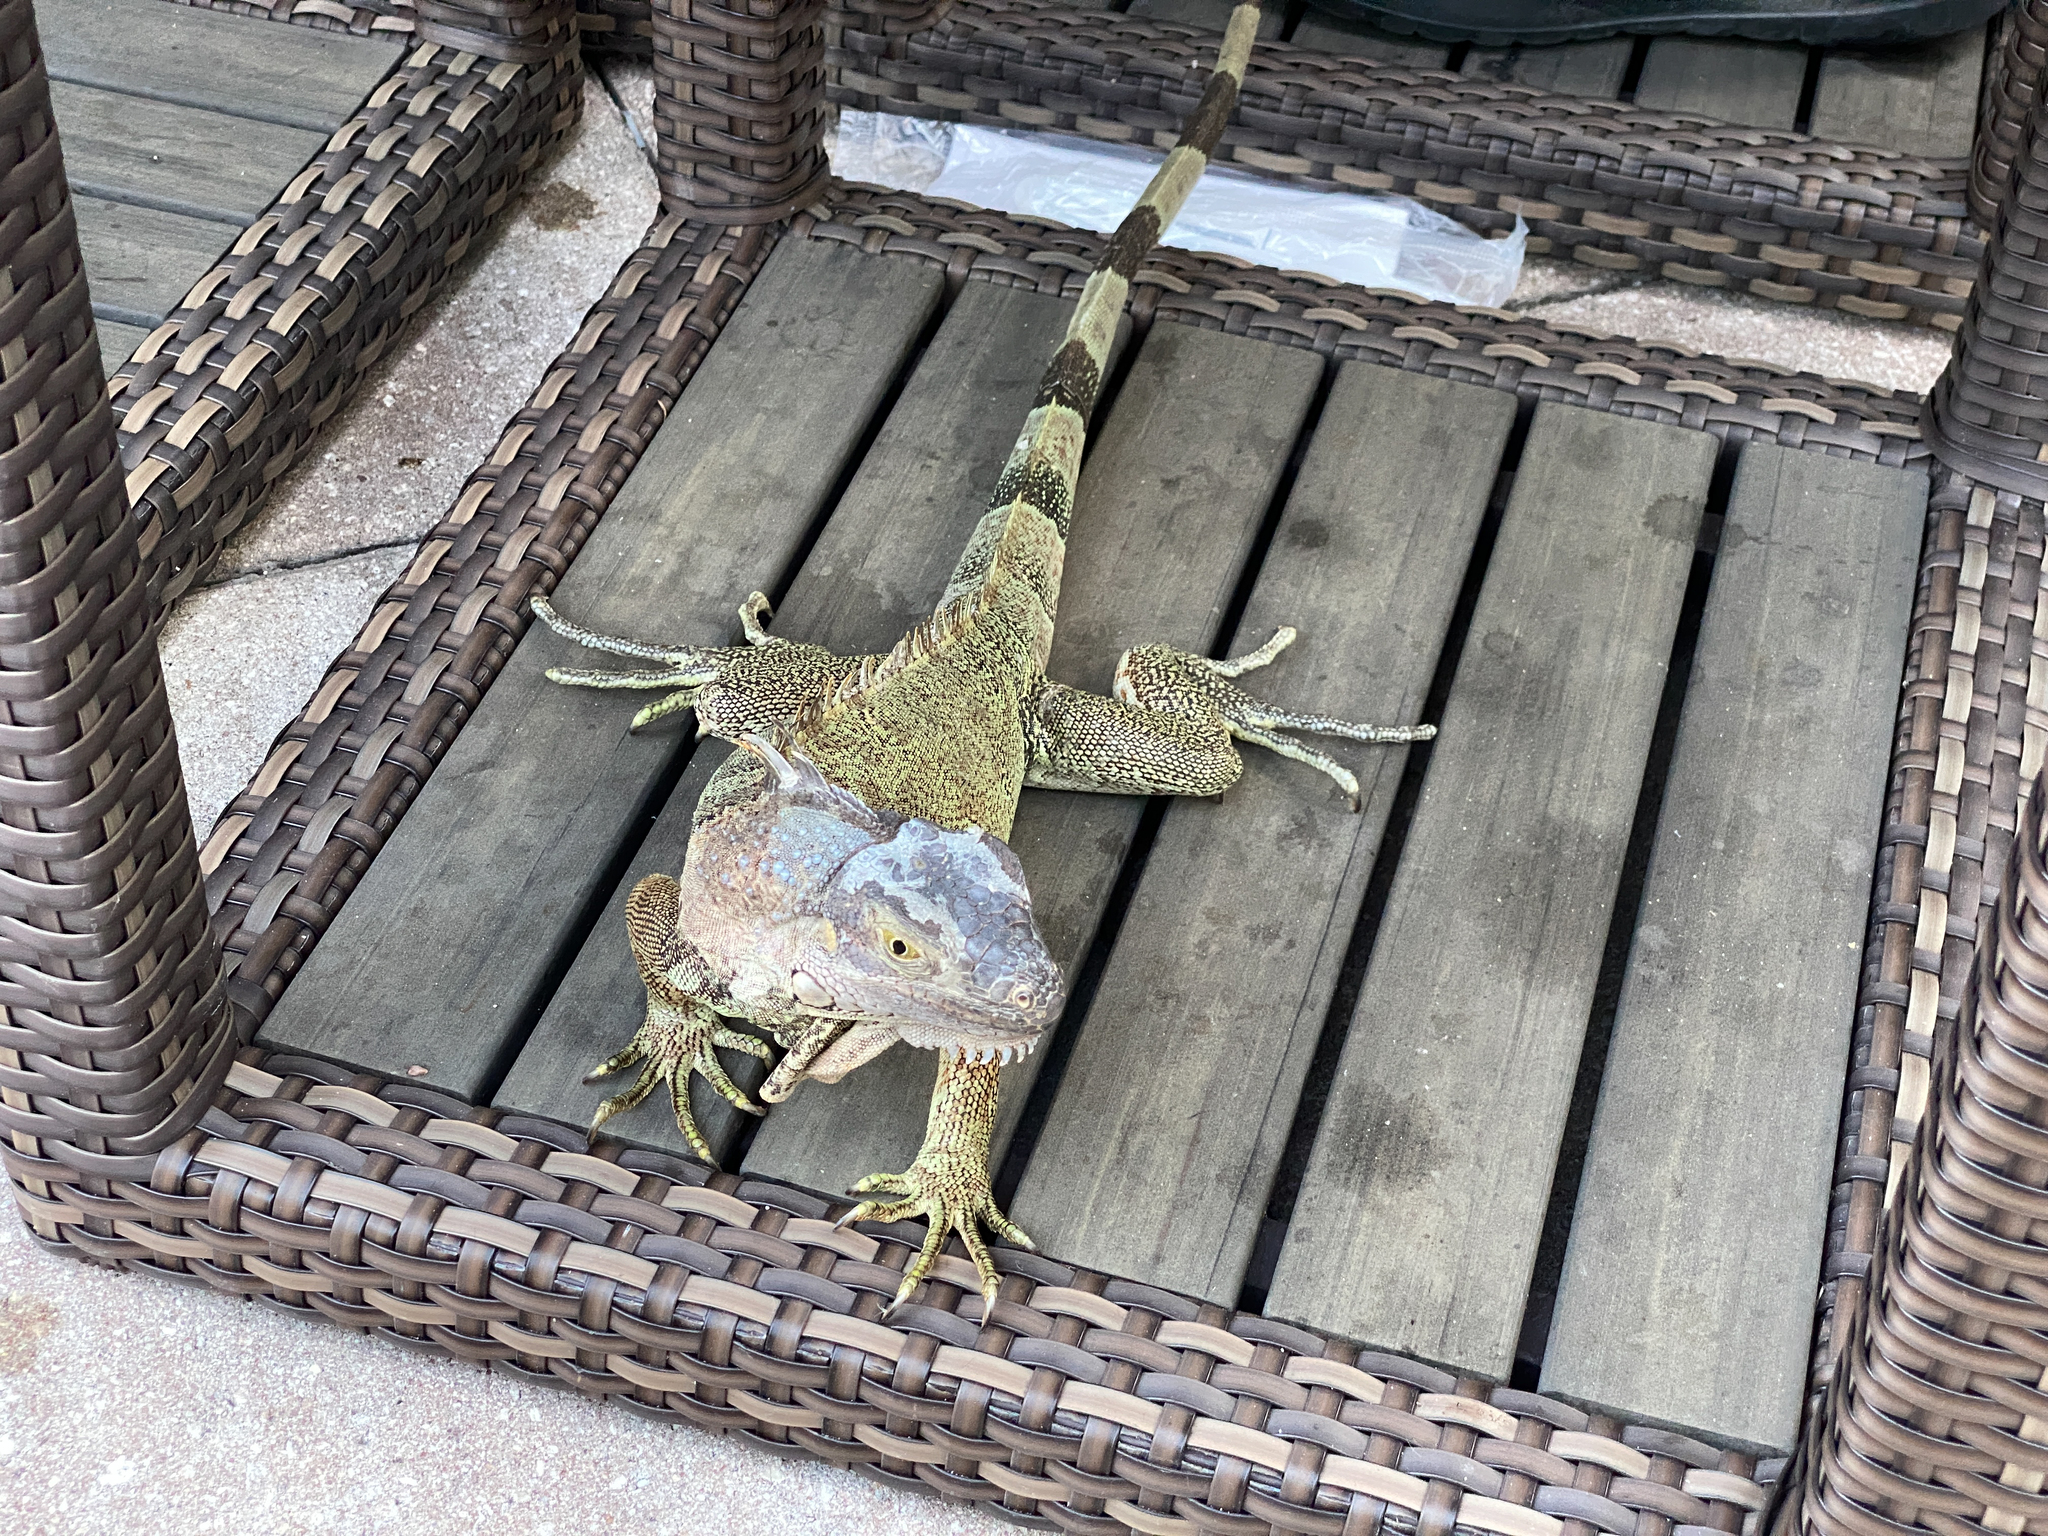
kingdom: Animalia
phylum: Chordata
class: Squamata
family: Iguanidae
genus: Iguana
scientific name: Iguana iguana
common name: Green iguana
